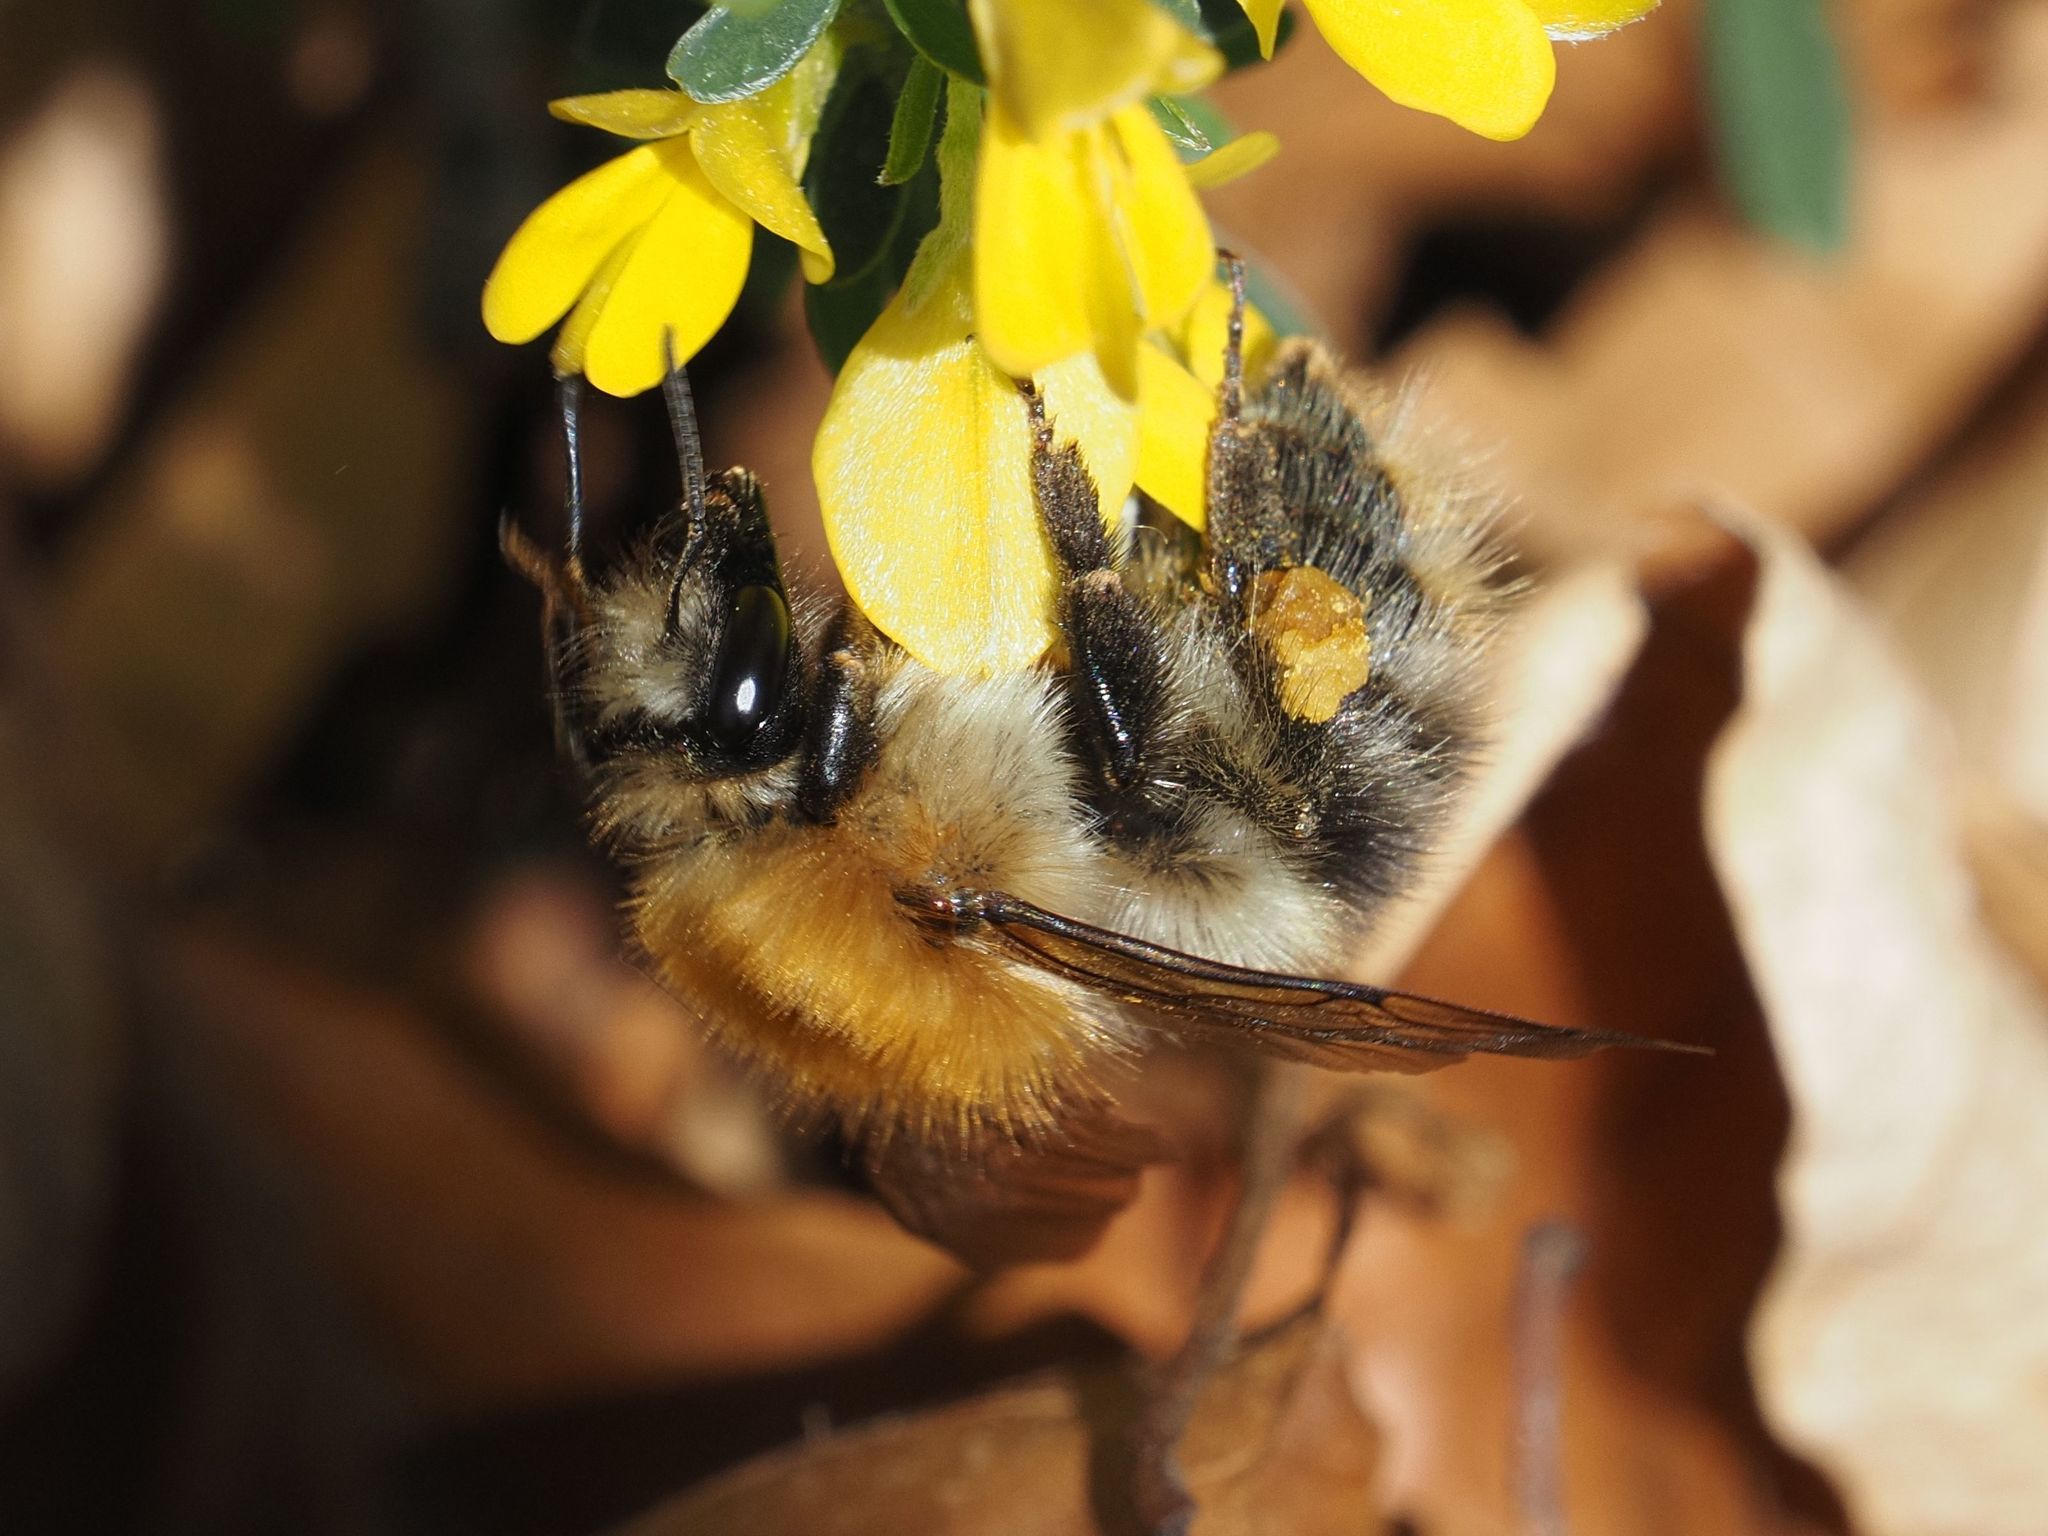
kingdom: Animalia
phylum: Arthropoda
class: Insecta
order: Hymenoptera
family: Apidae
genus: Bombus
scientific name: Bombus pascuorum
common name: Common carder bee
